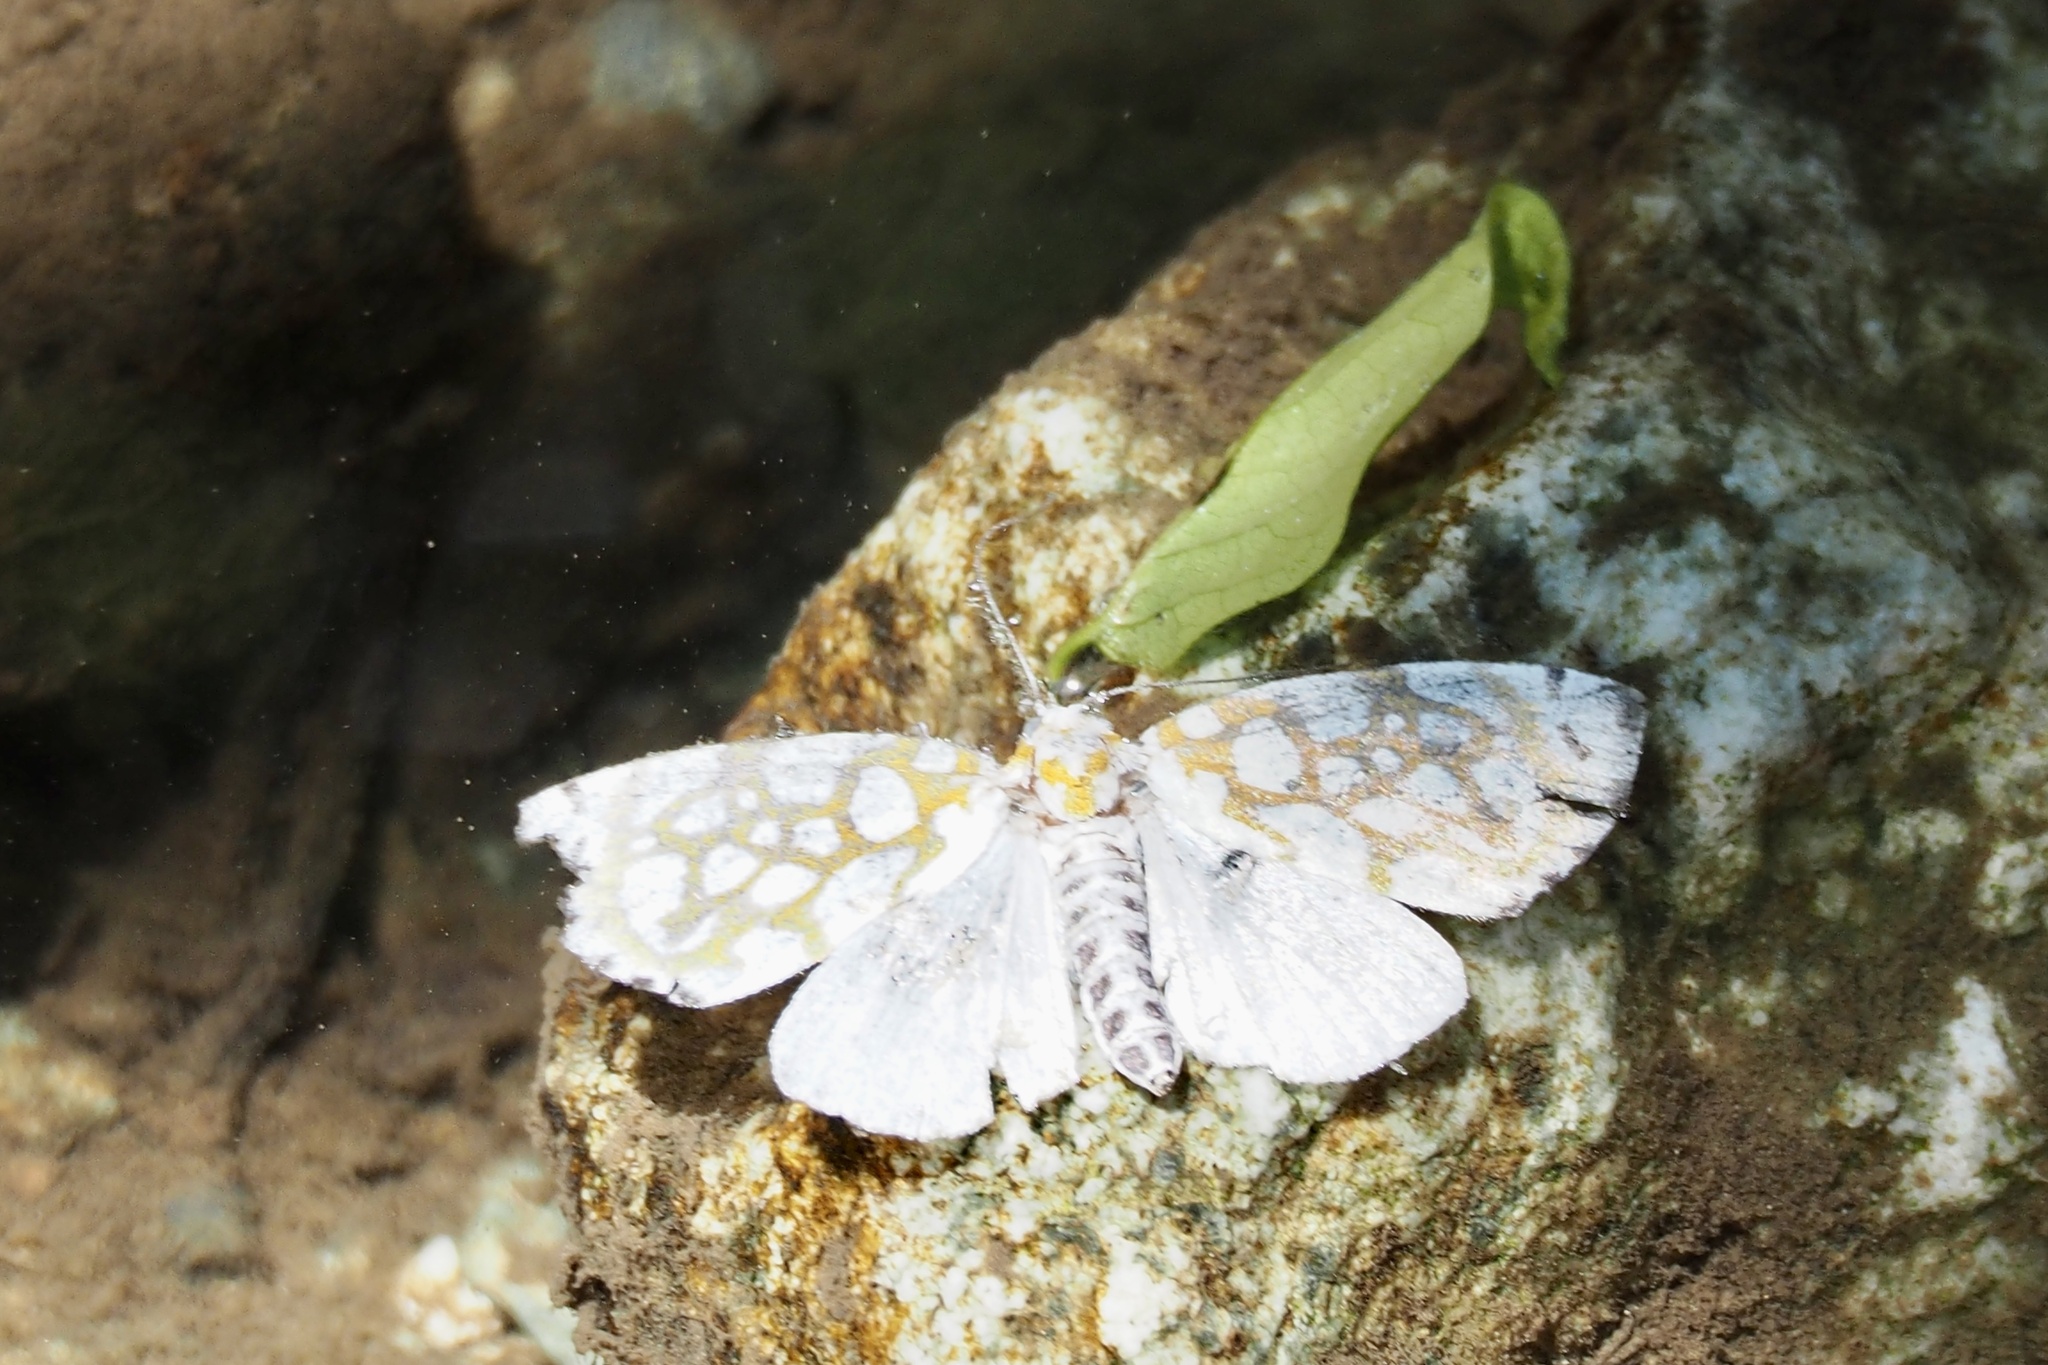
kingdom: Animalia
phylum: Arthropoda
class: Insecta
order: Lepidoptera
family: Nolidae
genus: Sinna
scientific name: Sinna extrema
